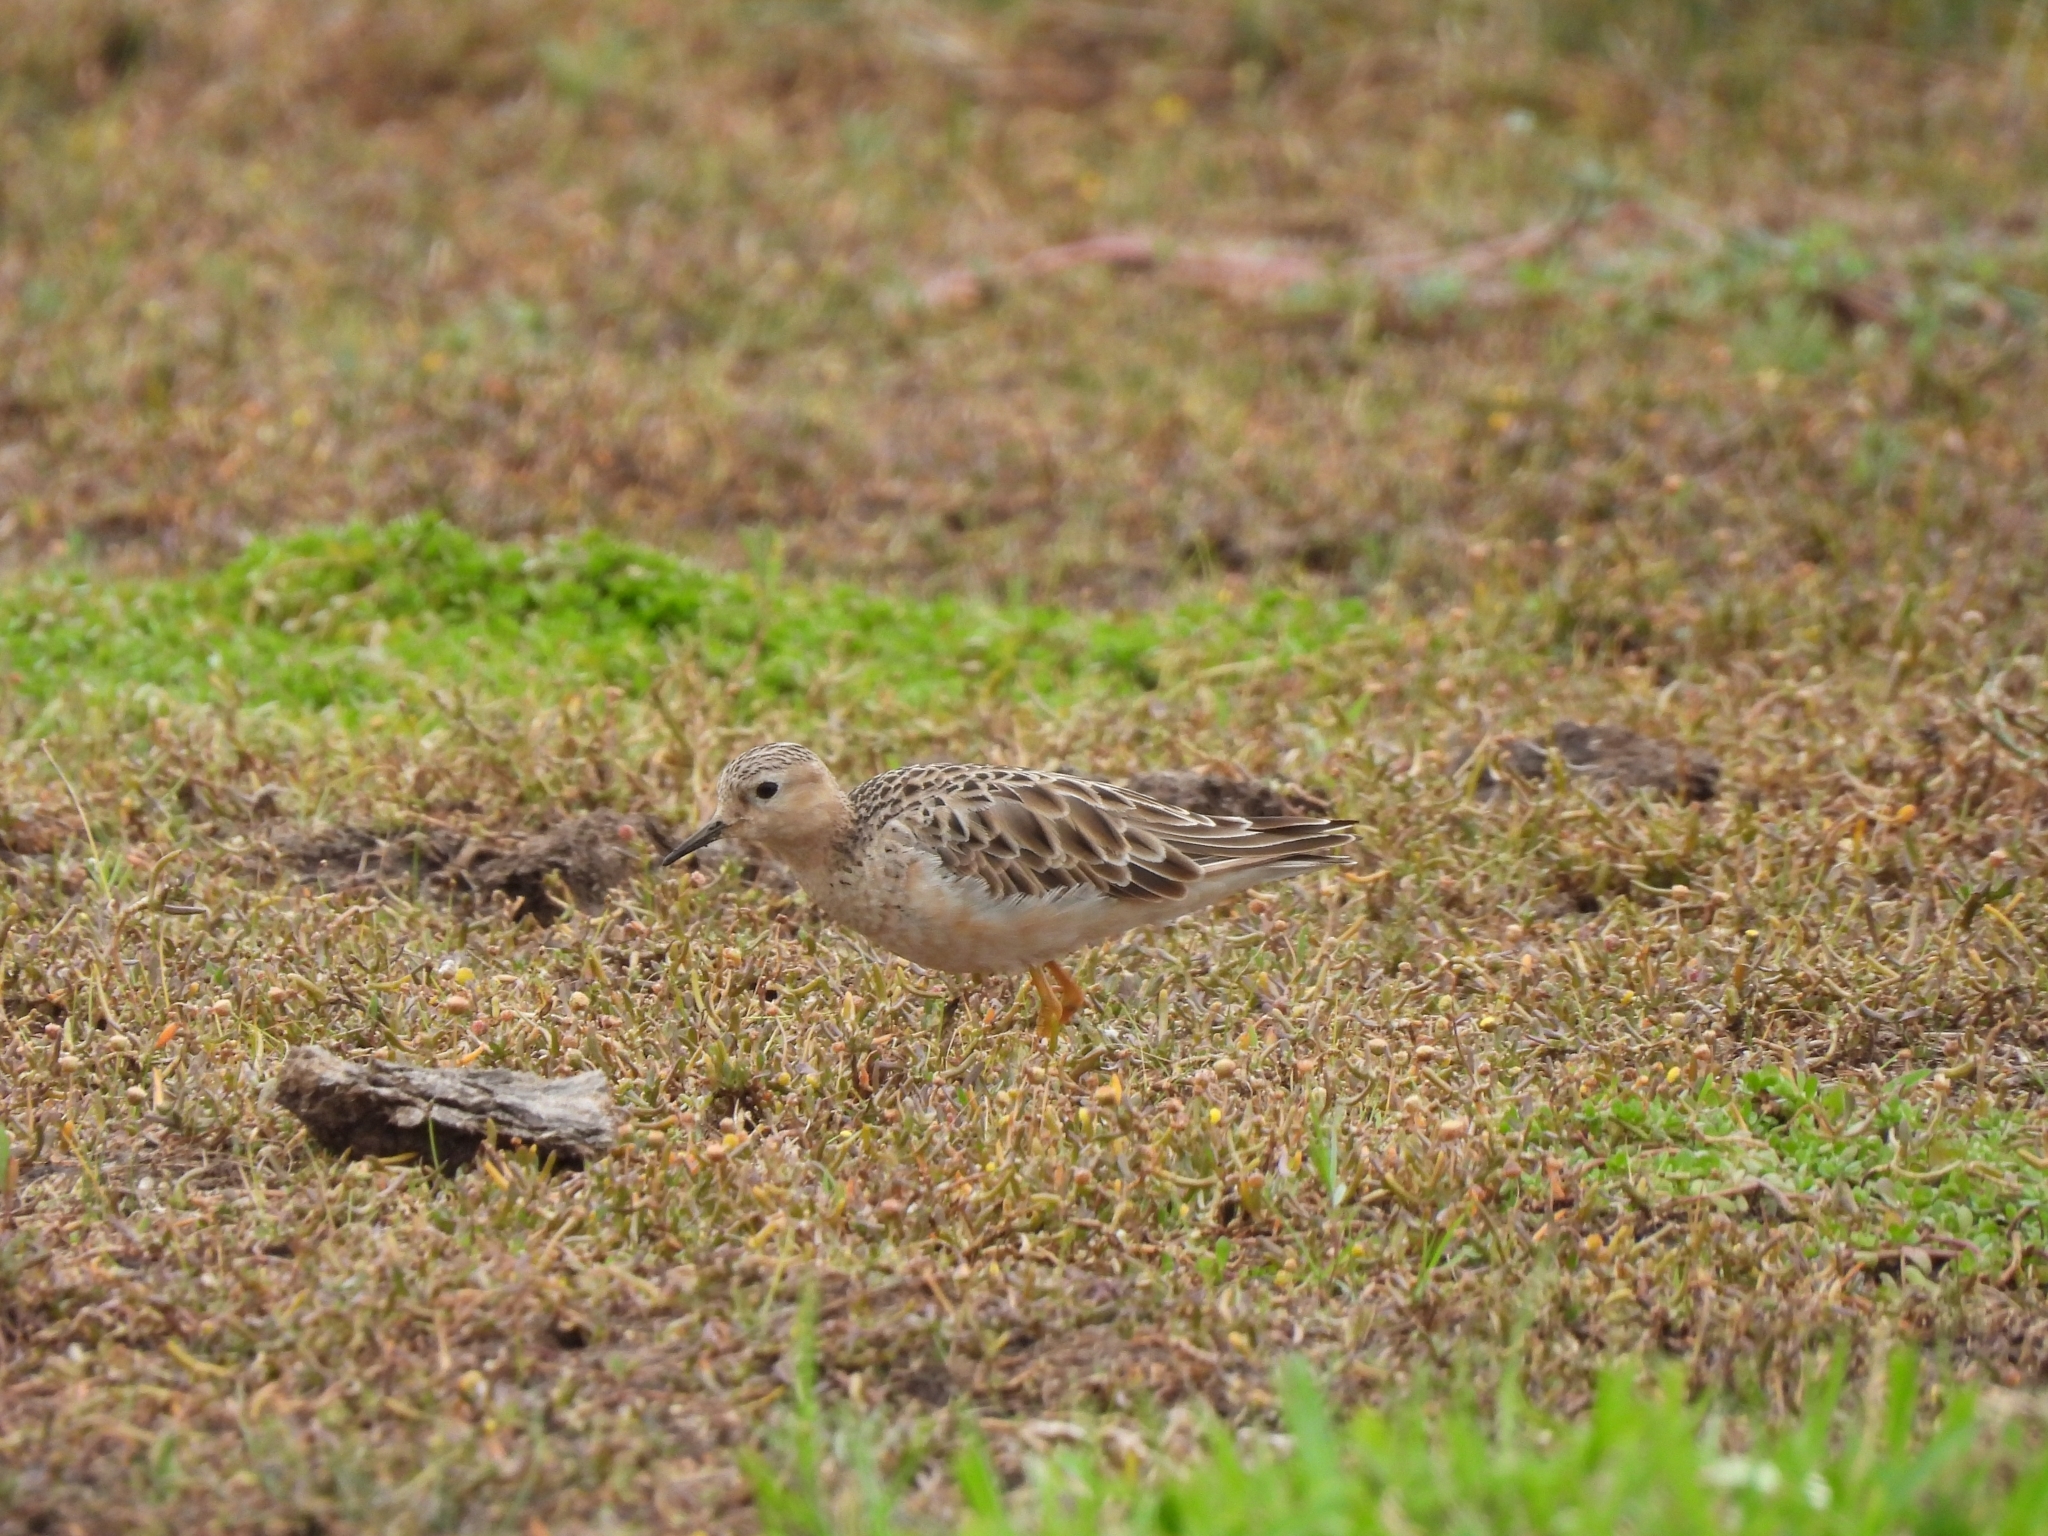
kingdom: Animalia
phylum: Chordata
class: Aves
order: Charadriiformes
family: Scolopacidae
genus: Calidris
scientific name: Calidris subruficollis
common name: Buff-breasted sandpiper
